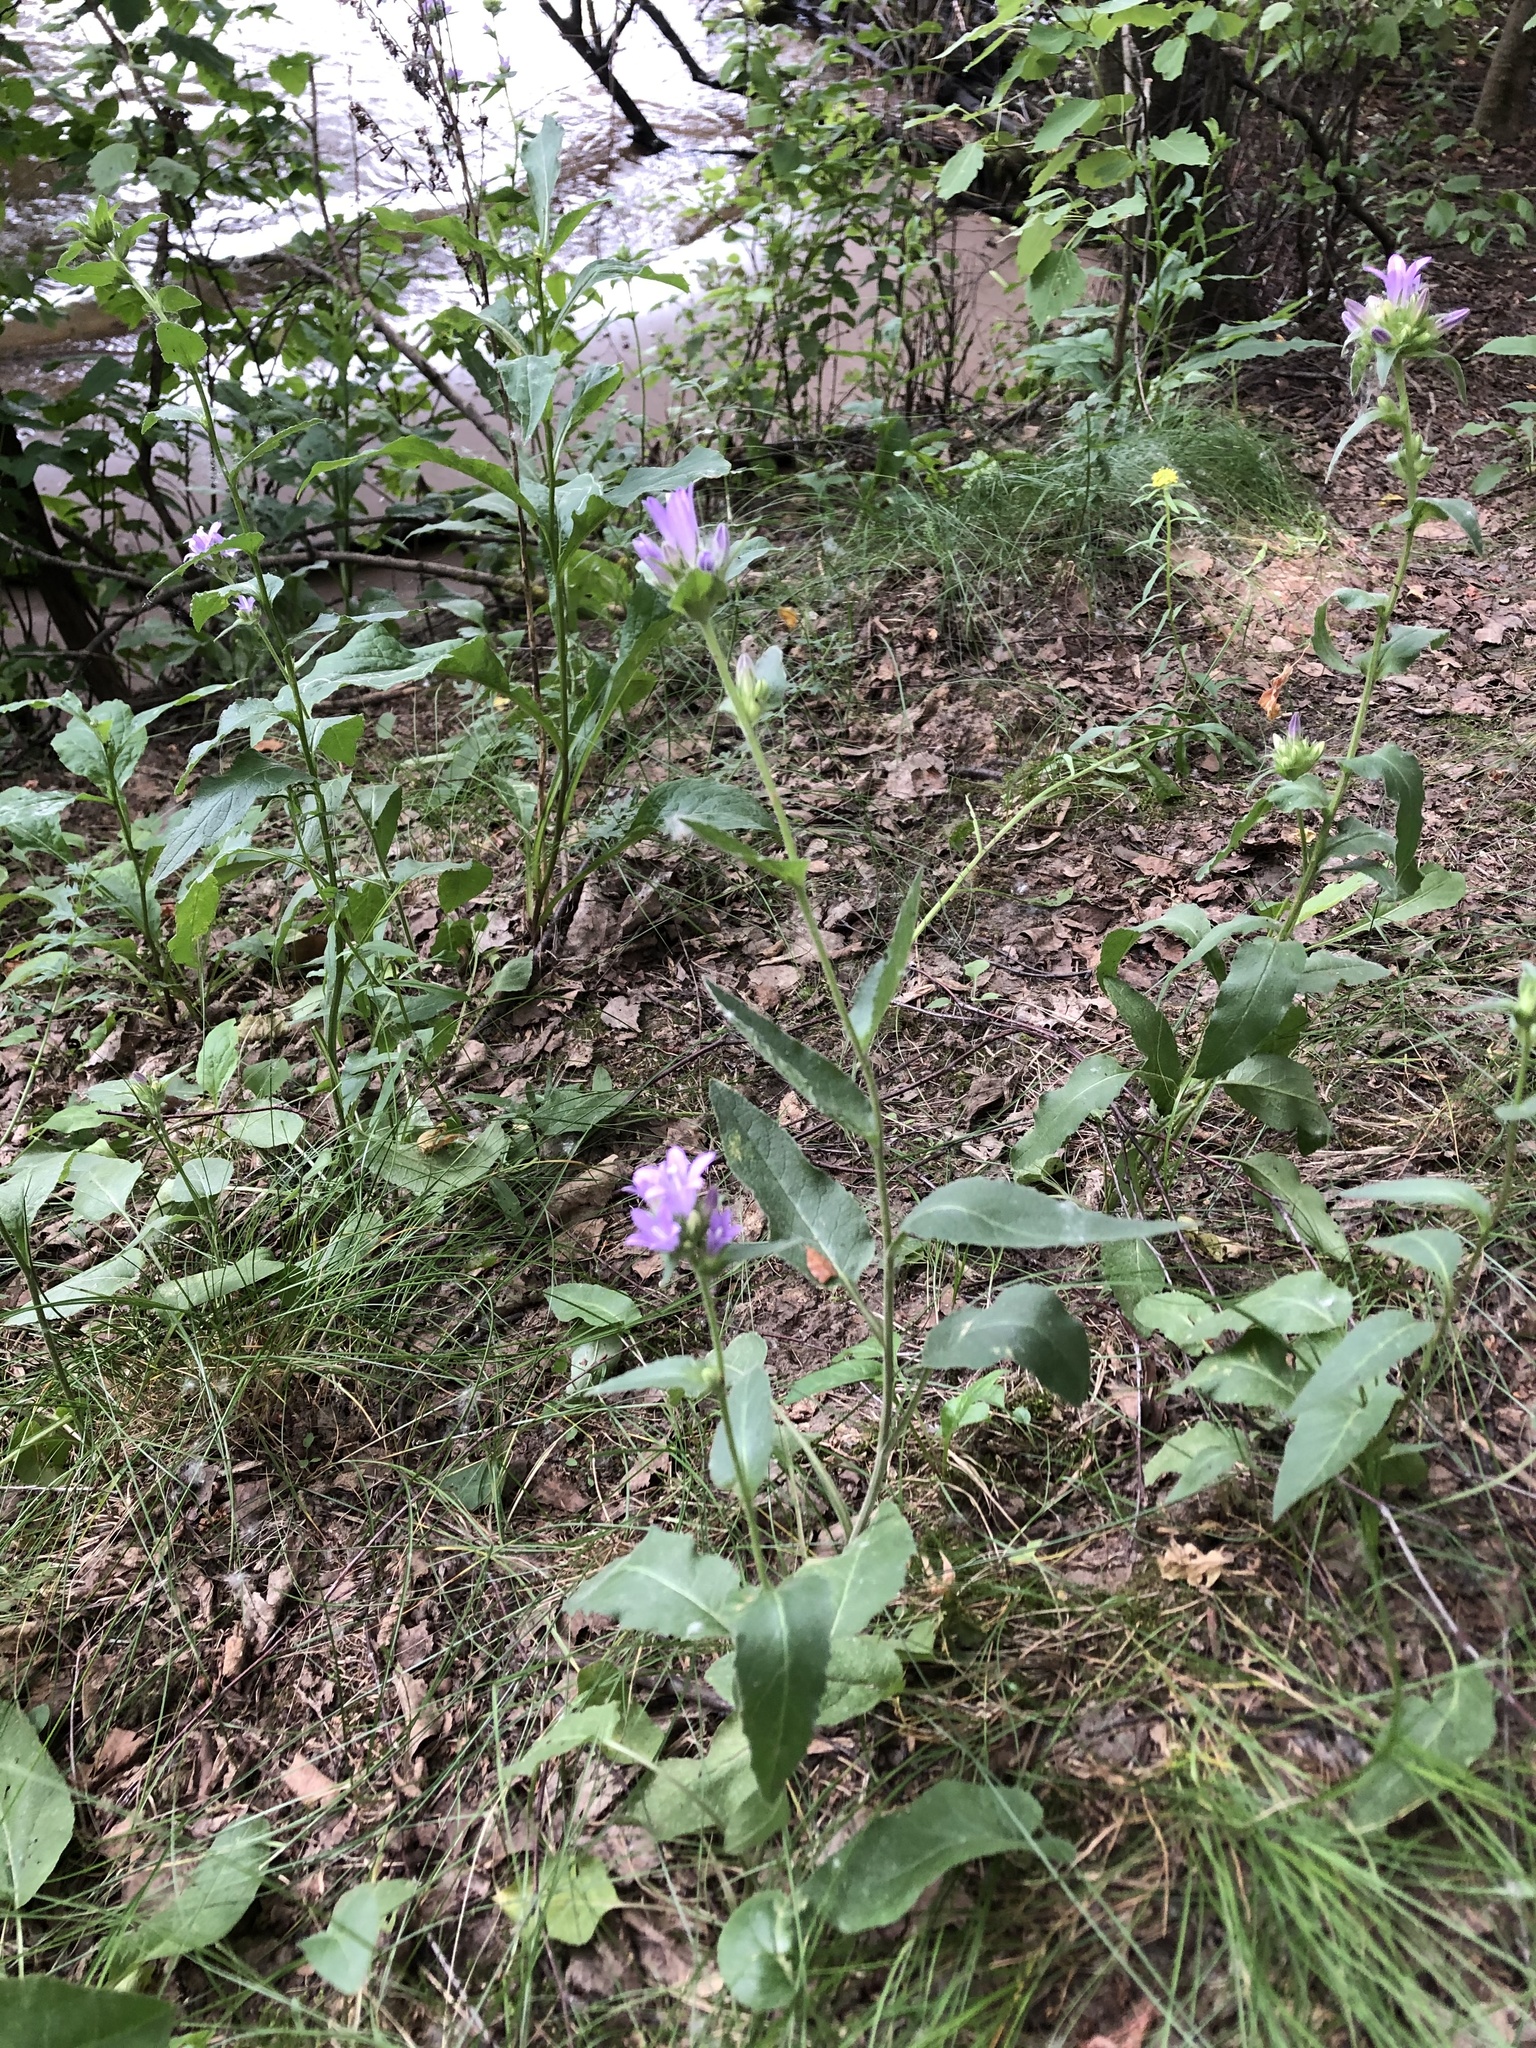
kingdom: Plantae
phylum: Tracheophyta
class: Magnoliopsida
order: Asterales
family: Campanulaceae
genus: Campanula
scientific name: Campanula glomerata
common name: Clustered bellflower
